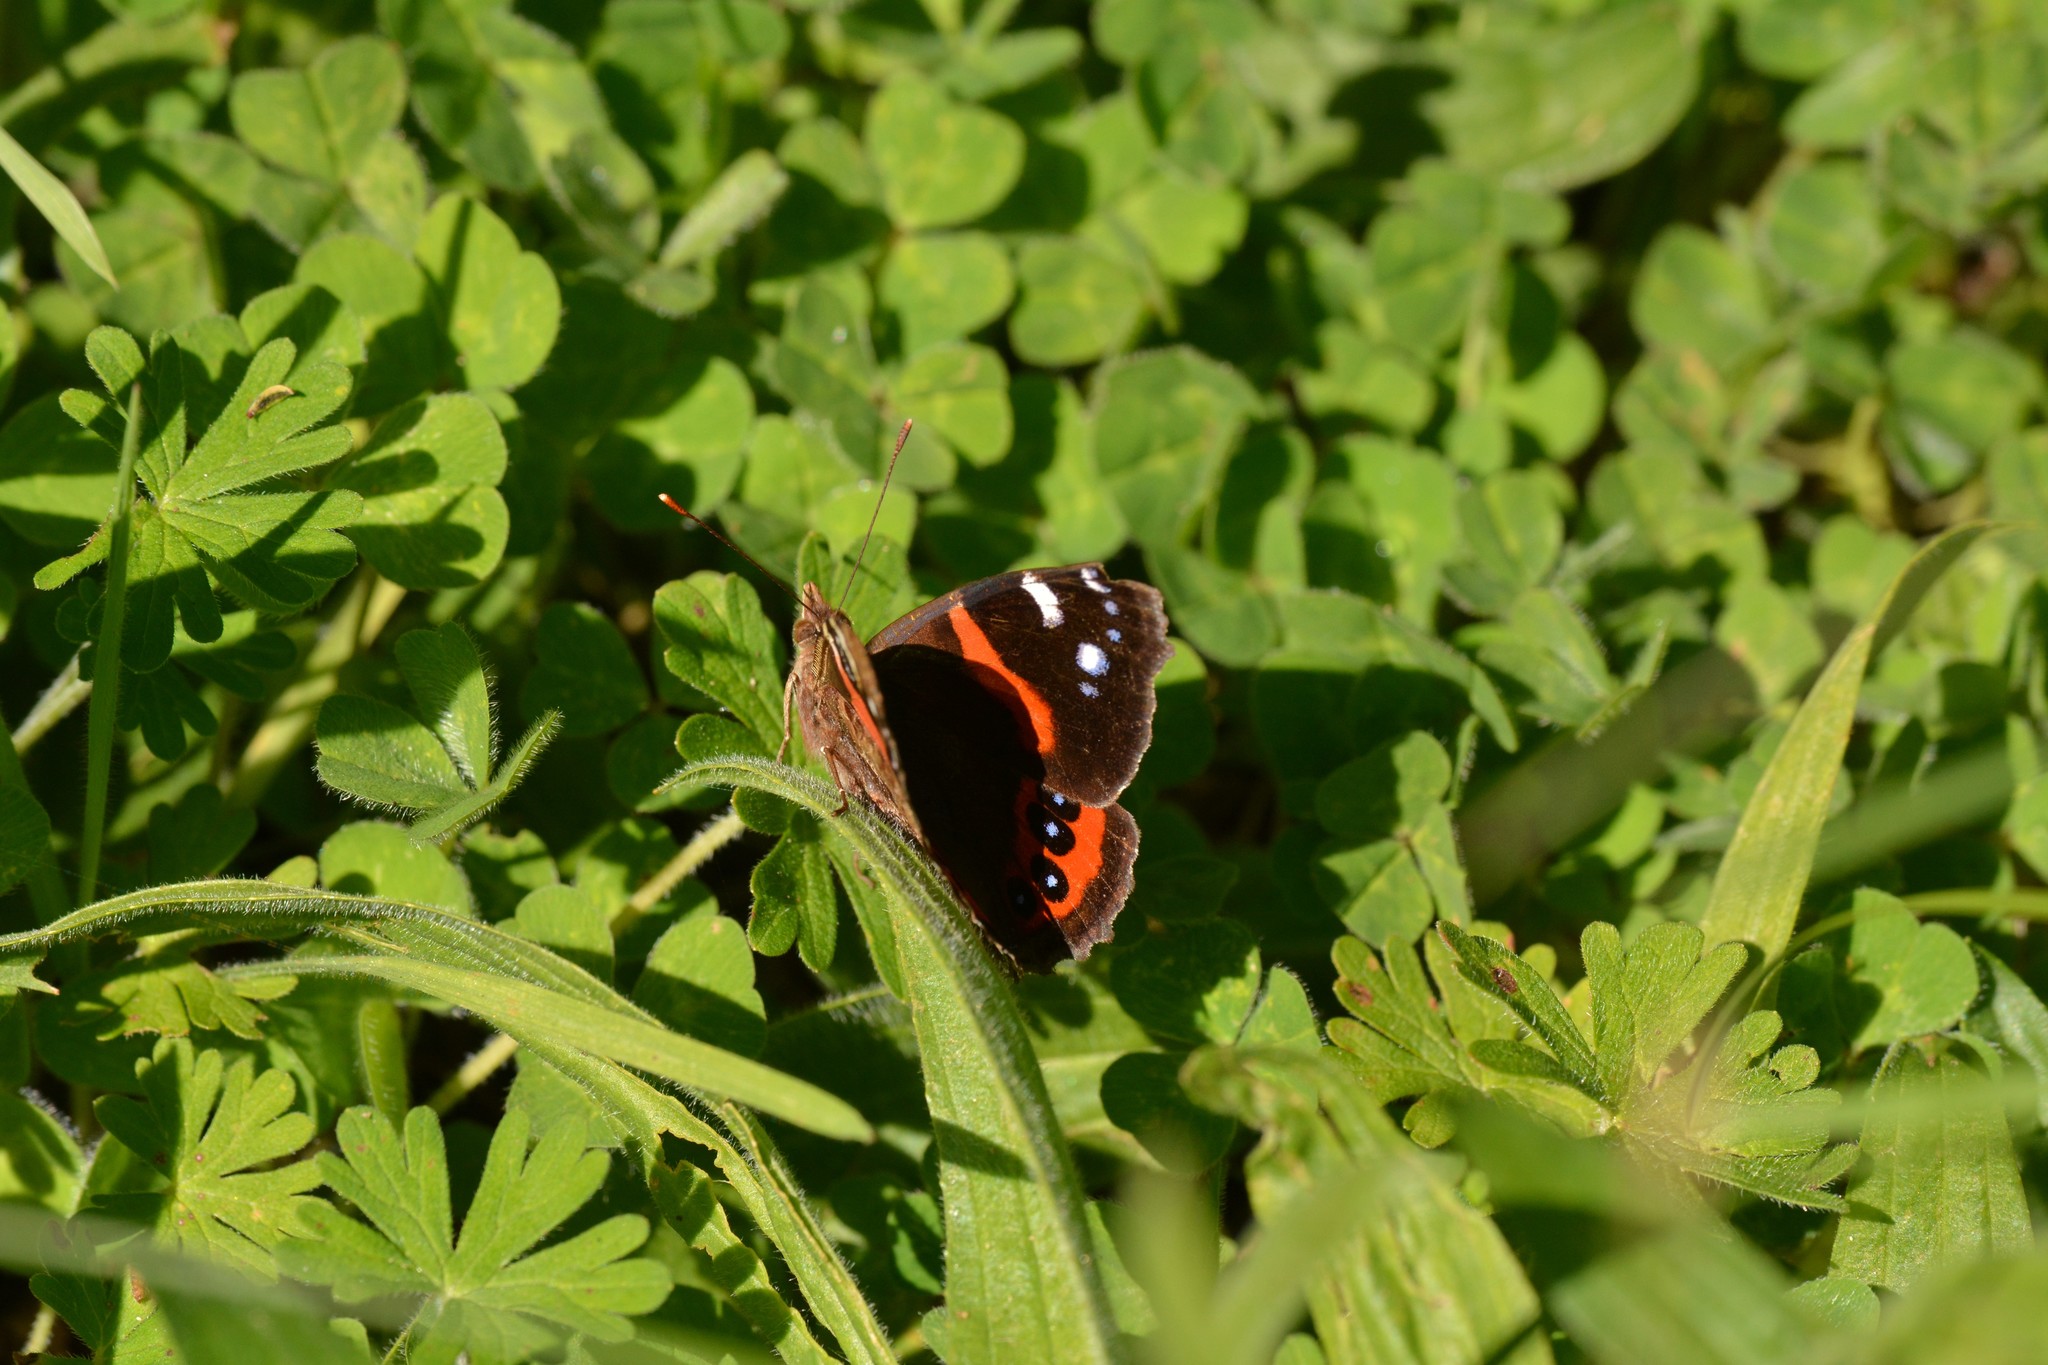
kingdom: Animalia
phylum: Arthropoda
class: Insecta
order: Lepidoptera
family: Nymphalidae
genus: Vanessa
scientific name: Vanessa gonerilla
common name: New zealand red admiral
